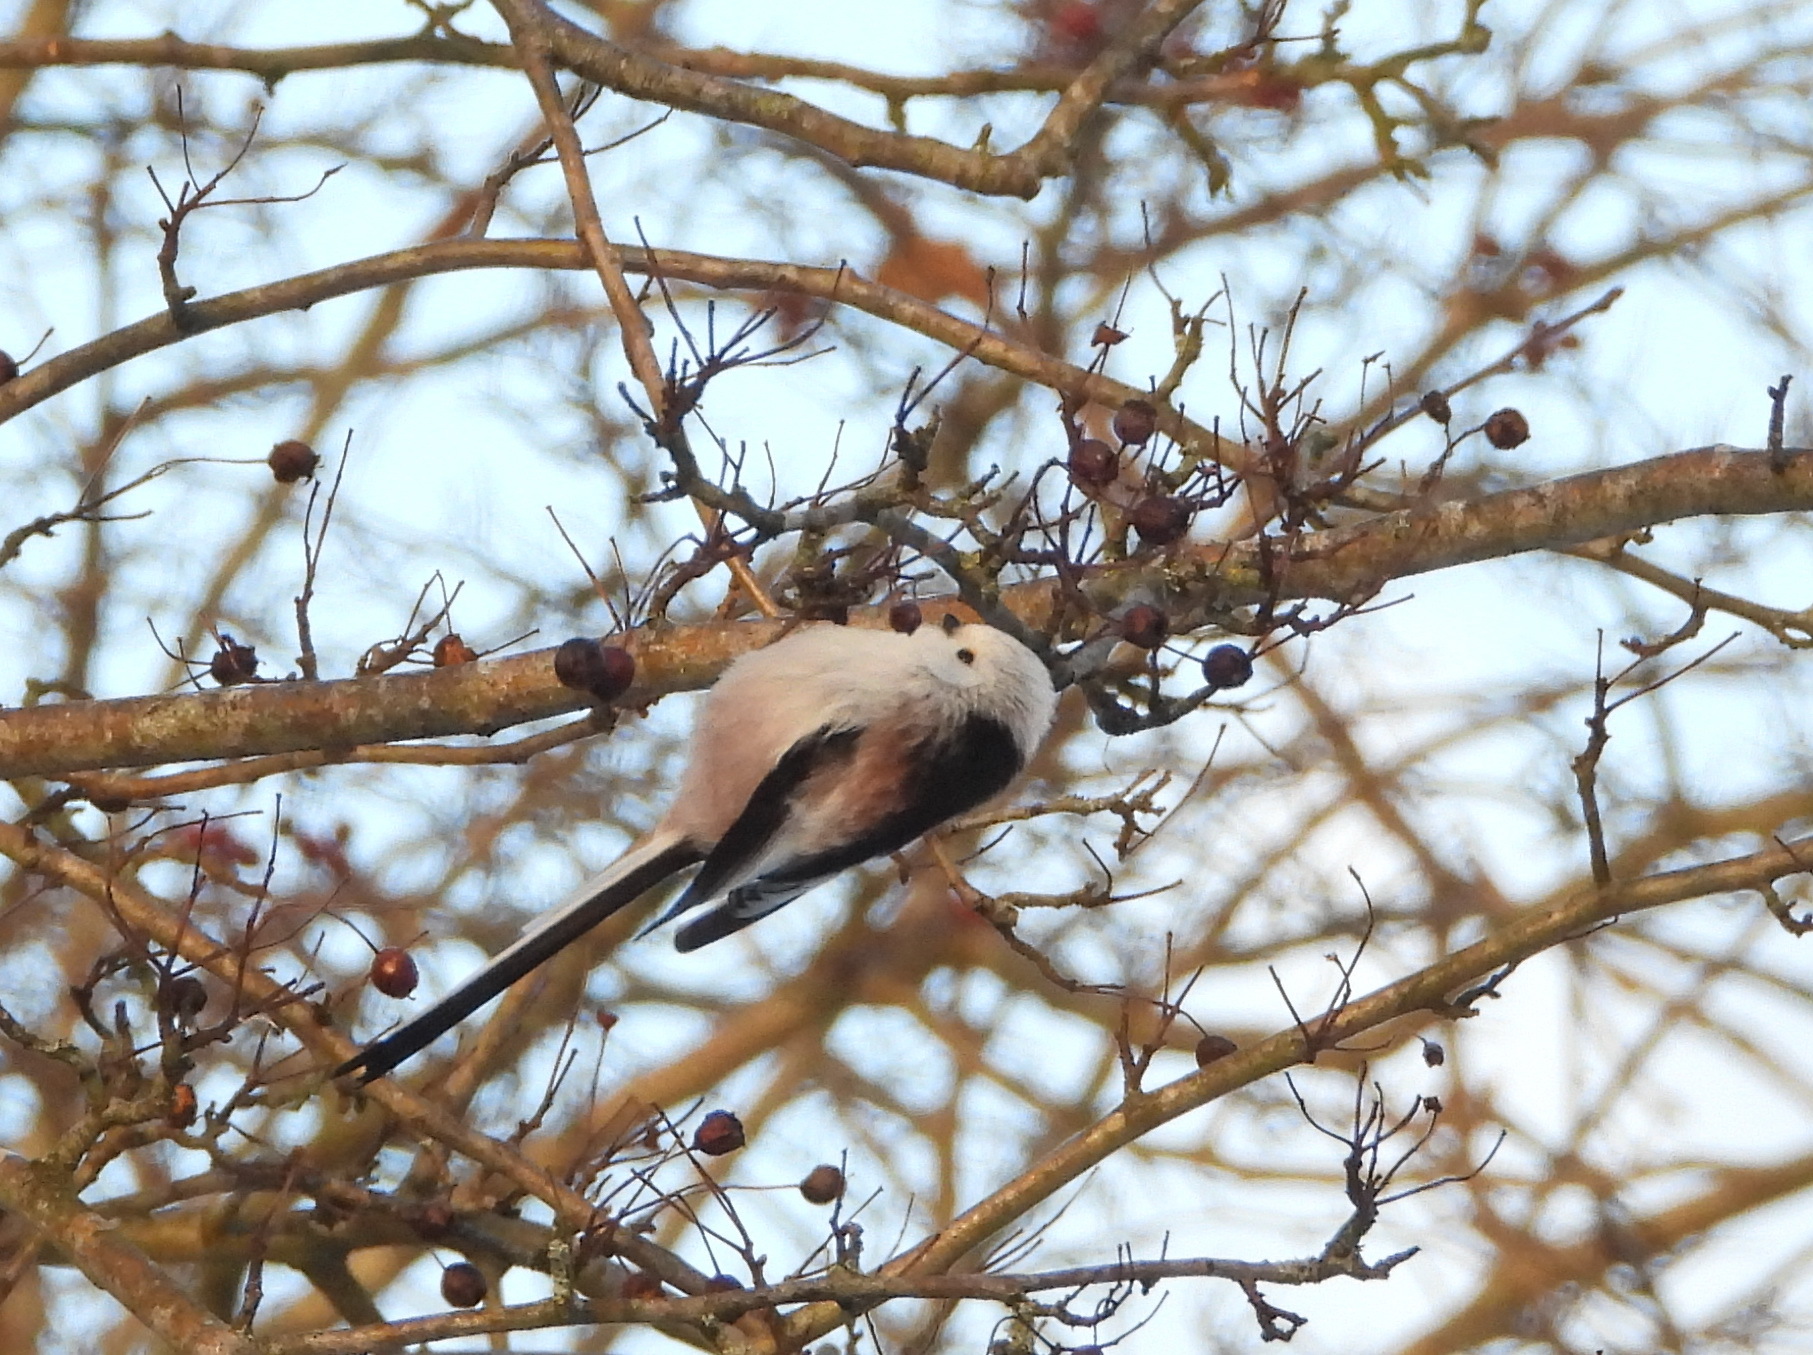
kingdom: Animalia
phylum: Chordata
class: Aves
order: Passeriformes
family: Aegithalidae
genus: Aegithalos
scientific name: Aegithalos caudatus
